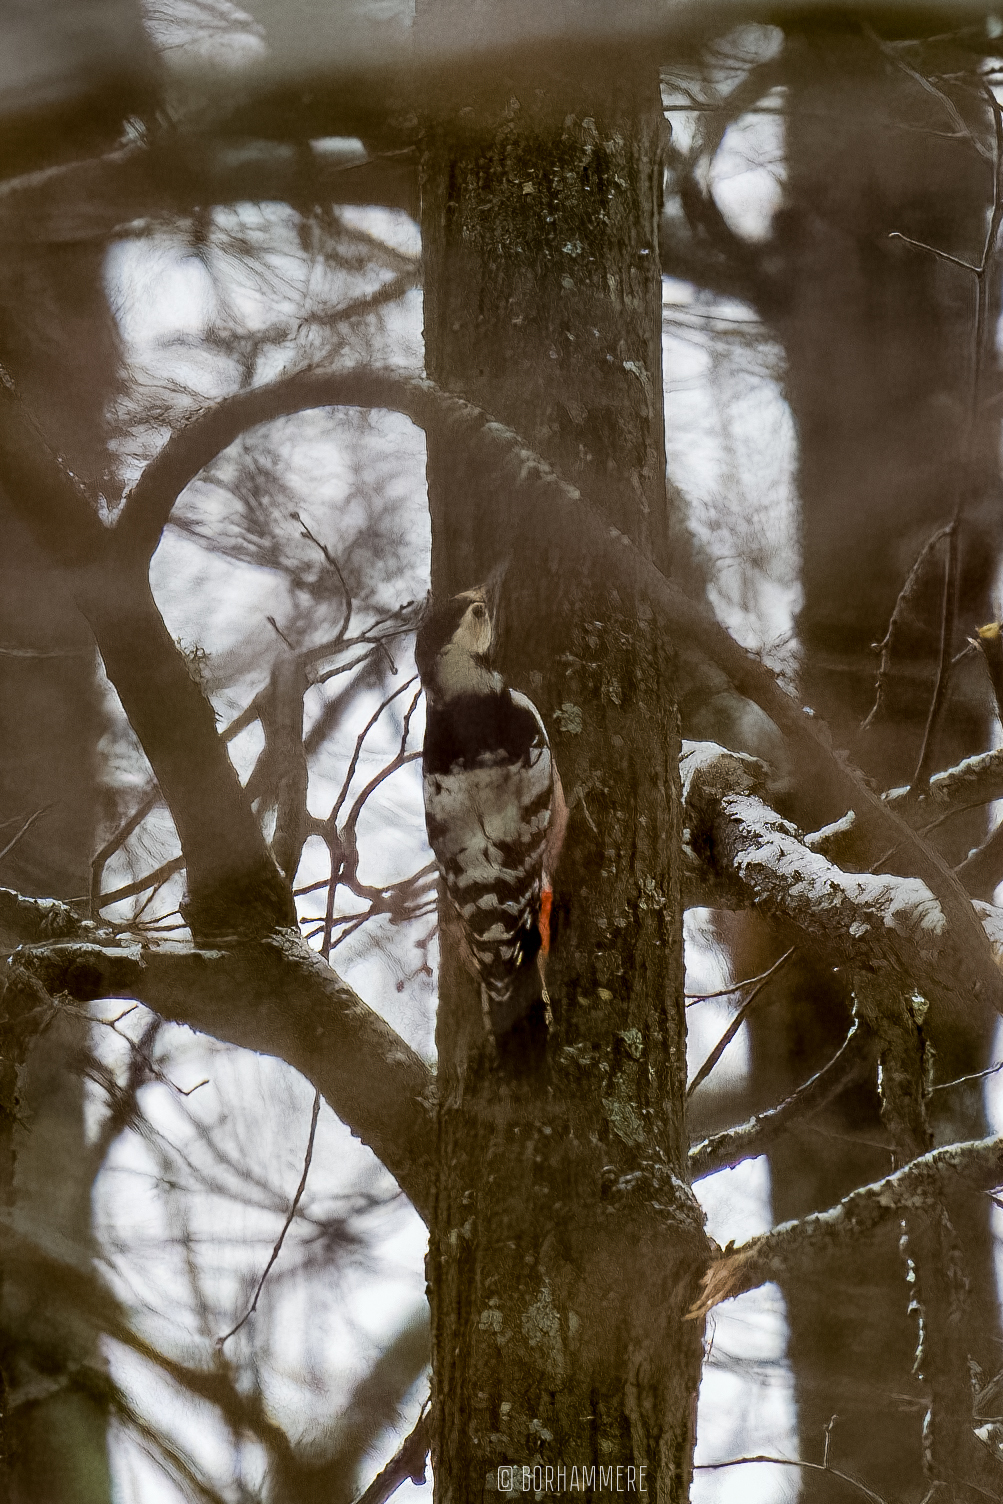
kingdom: Animalia
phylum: Chordata
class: Aves
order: Piciformes
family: Picidae
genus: Dendrocopos
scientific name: Dendrocopos leucotos
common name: White-backed woodpecker
